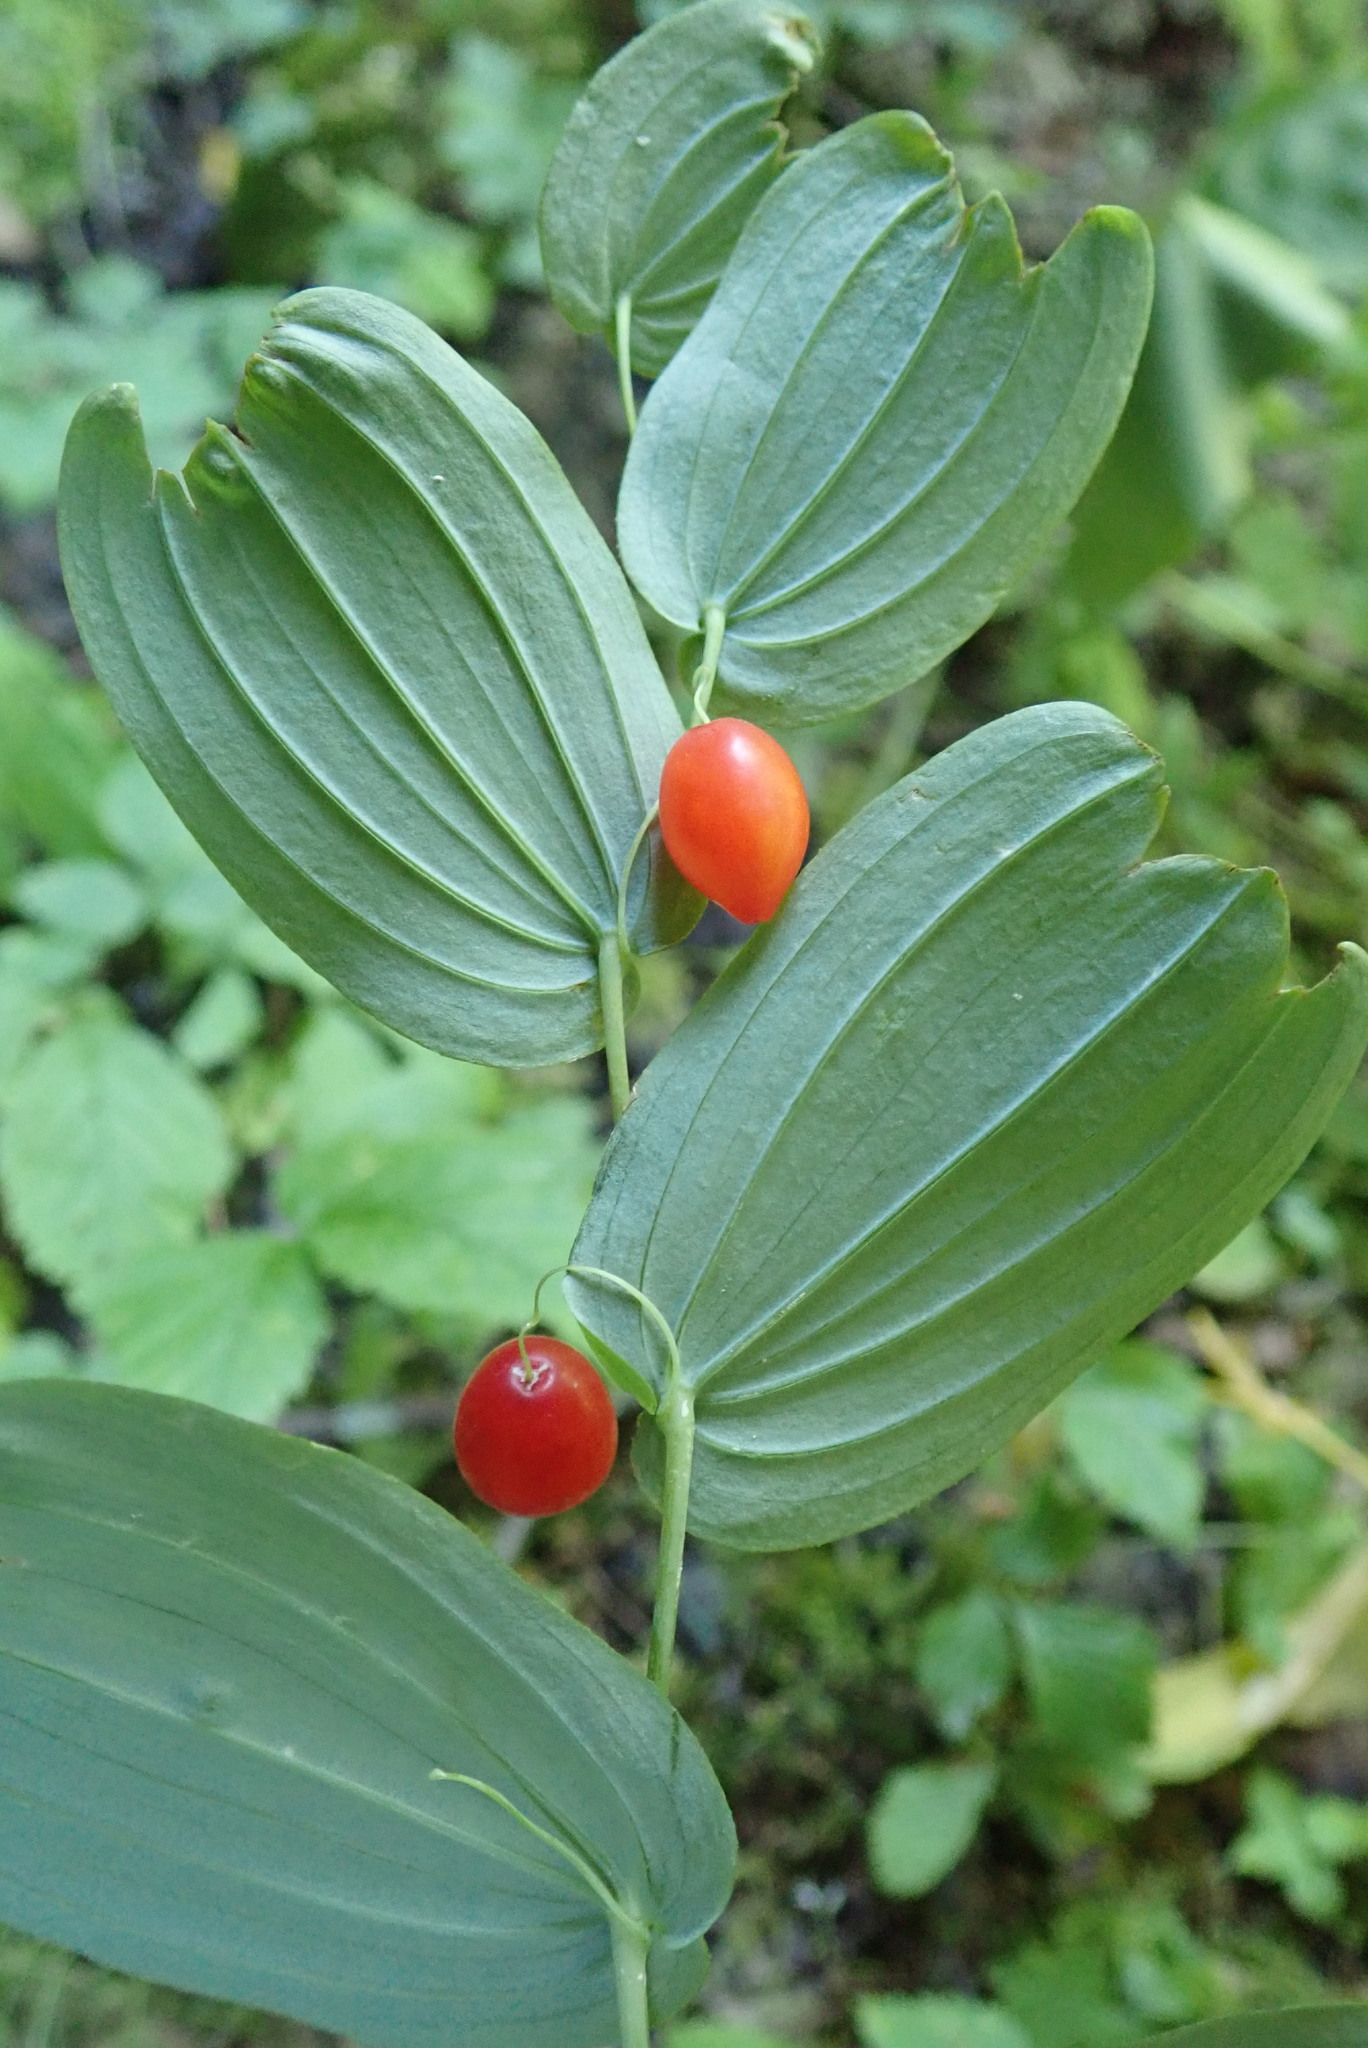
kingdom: Plantae
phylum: Tracheophyta
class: Liliopsida
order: Liliales
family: Liliaceae
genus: Streptopus
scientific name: Streptopus amplexifolius
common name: Clasp twisted stalk
